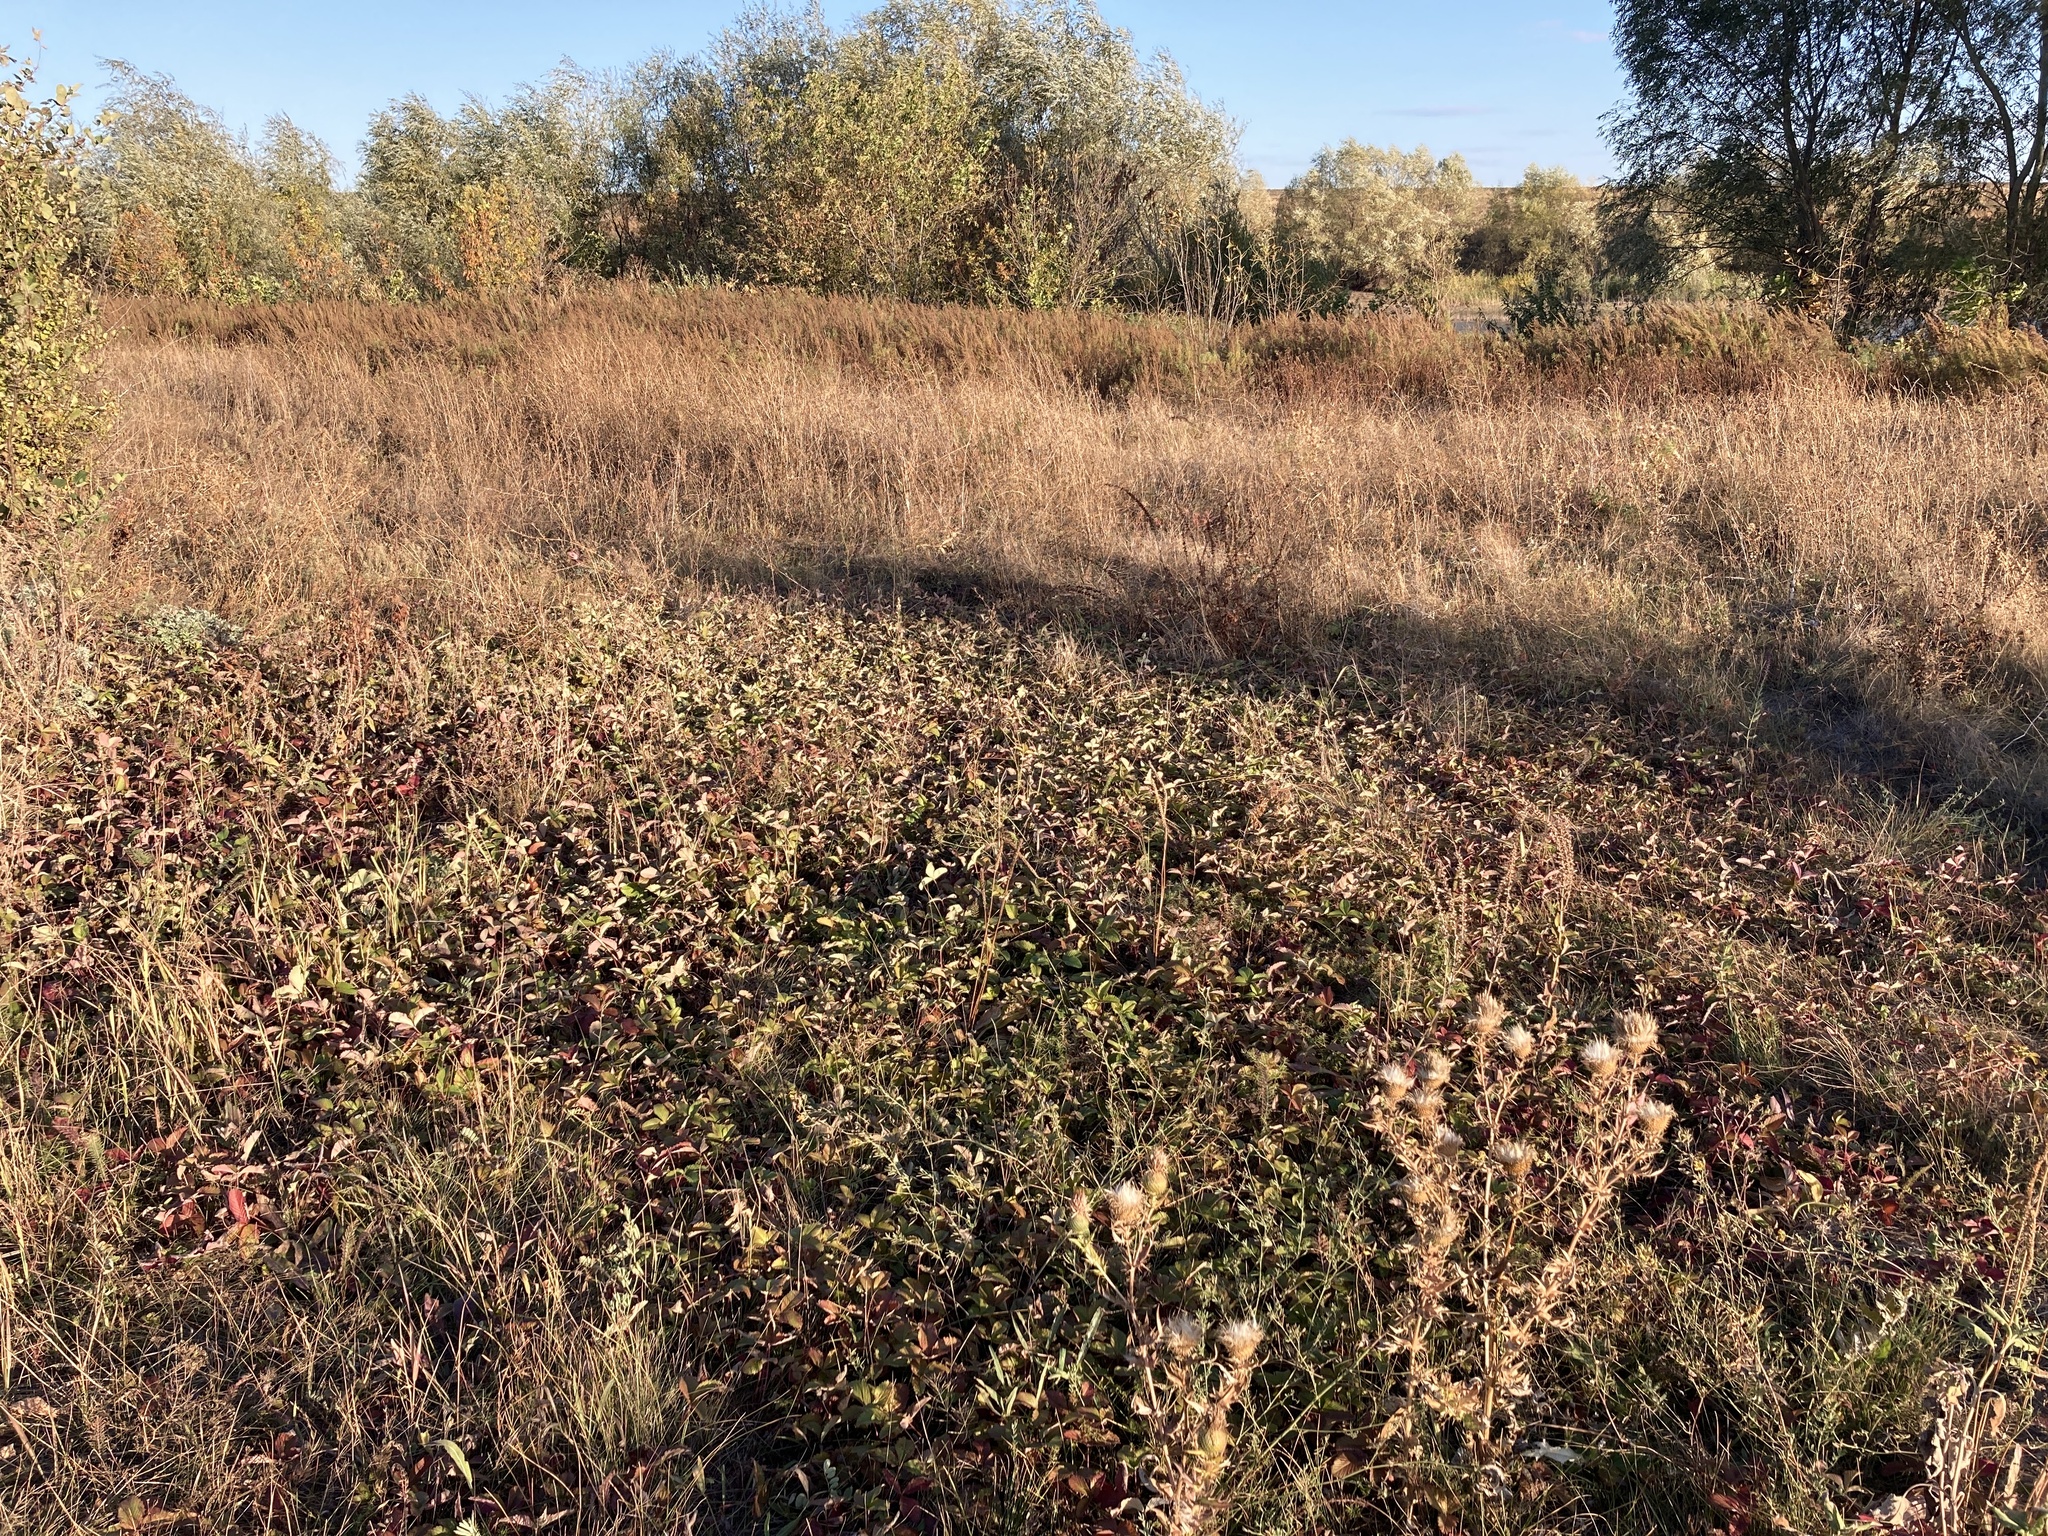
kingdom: Plantae
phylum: Tracheophyta
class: Magnoliopsida
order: Rosales
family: Rosaceae
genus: Fragaria
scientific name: Fragaria viridis
